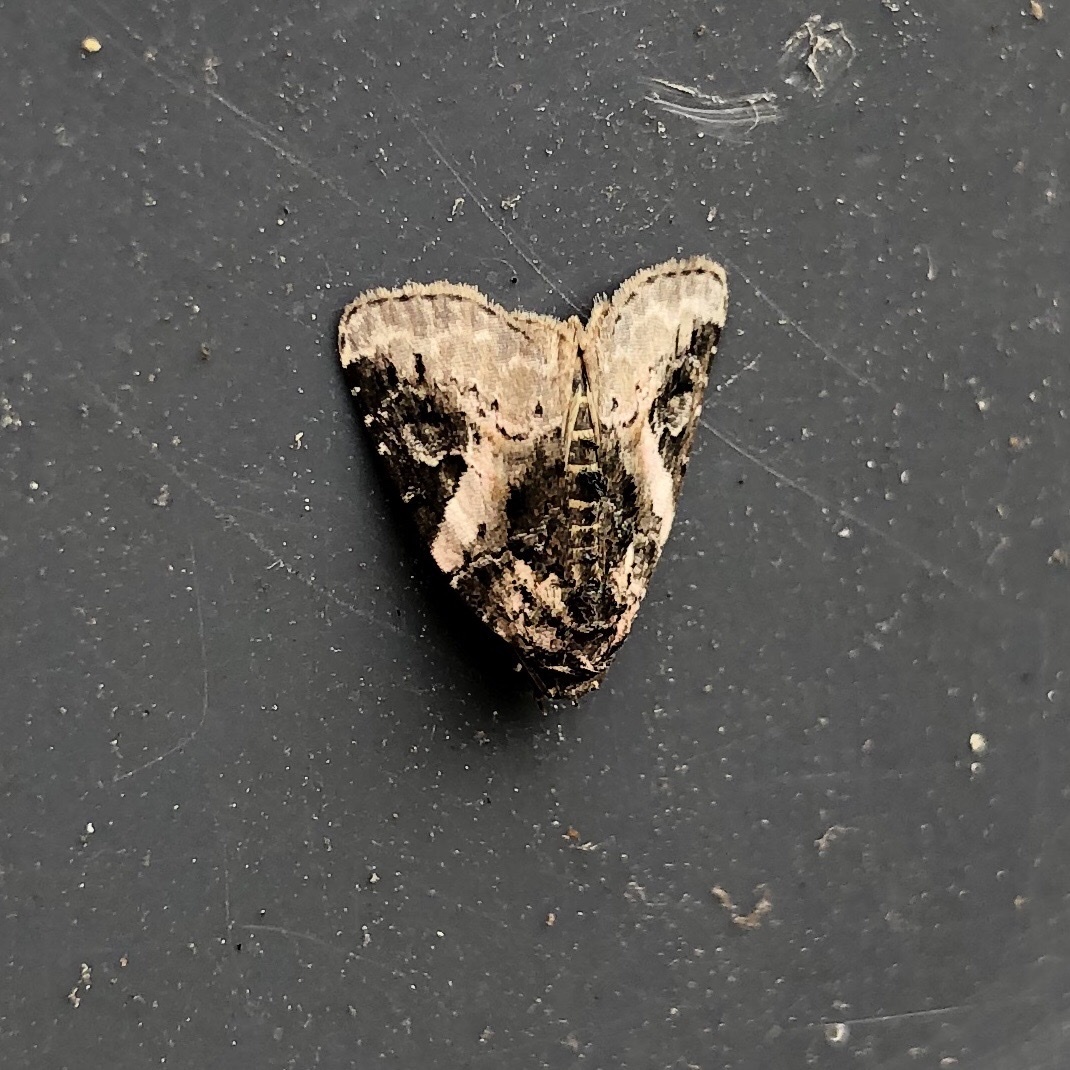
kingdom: Animalia
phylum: Arthropoda
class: Insecta
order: Lepidoptera
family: Noctuidae
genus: Pseudeustrotia
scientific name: Pseudeustrotia carneola
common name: Pink-barred lithacodia moth
